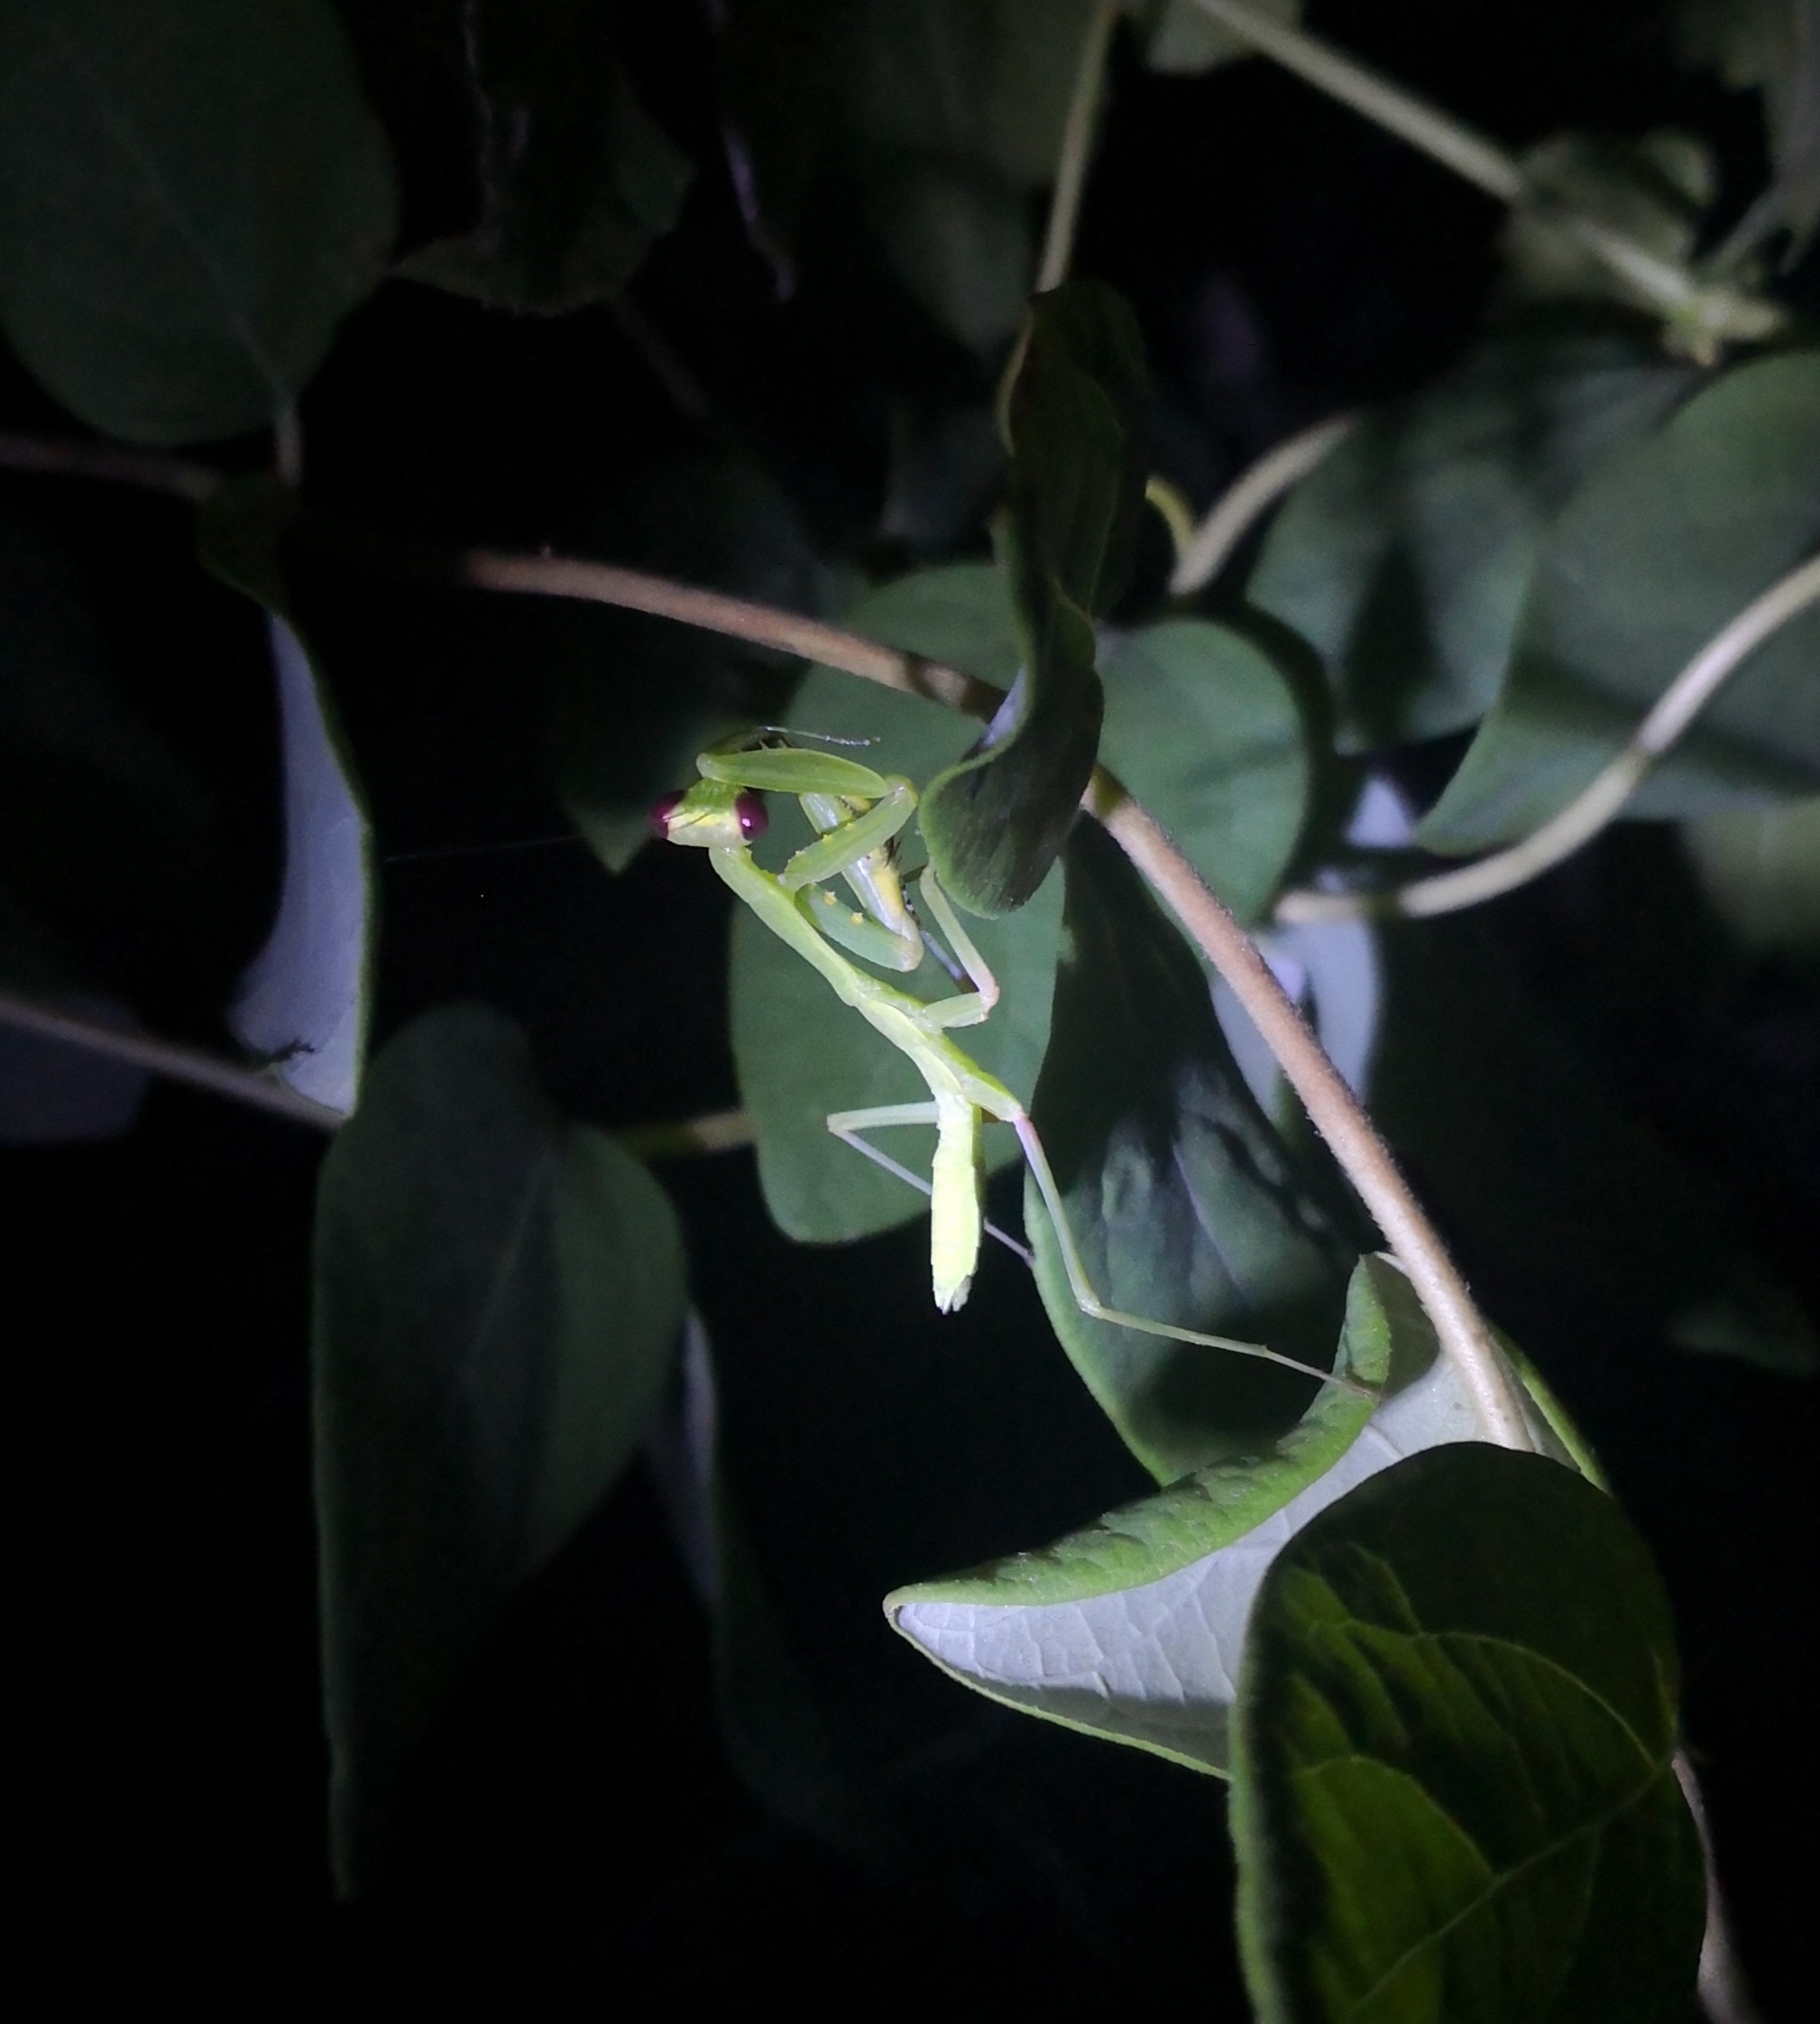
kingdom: Animalia
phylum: Arthropoda
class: Insecta
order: Mantodea
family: Mantidae
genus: Mantis
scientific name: Mantis religiosa
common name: Praying mantis
